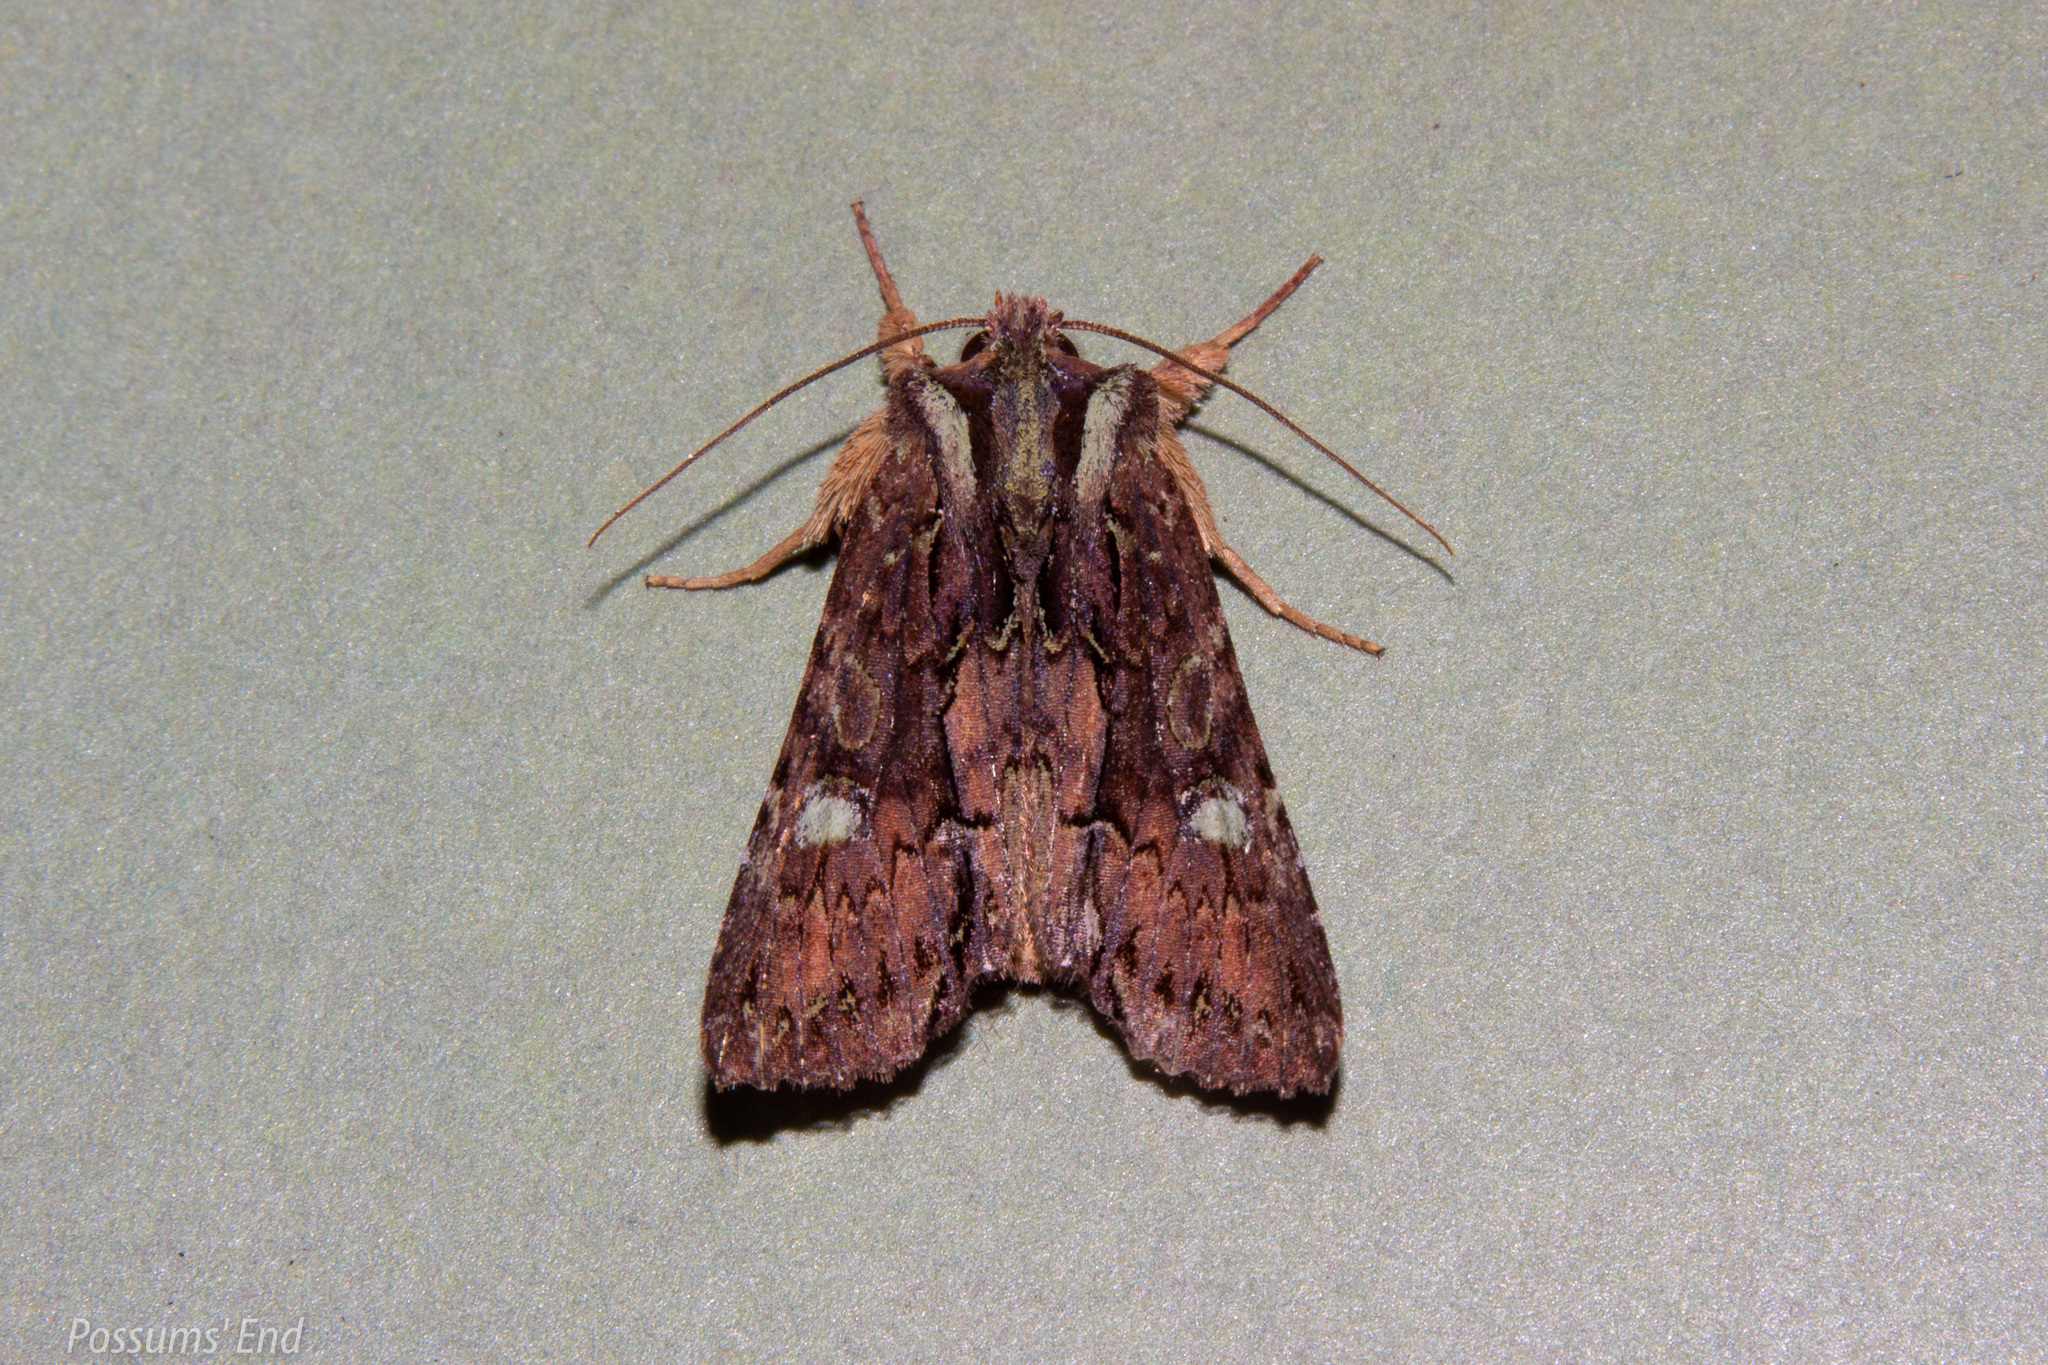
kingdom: Animalia
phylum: Arthropoda
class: Insecta
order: Lepidoptera
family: Noctuidae
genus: Meterana
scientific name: Meterana diatmeta
